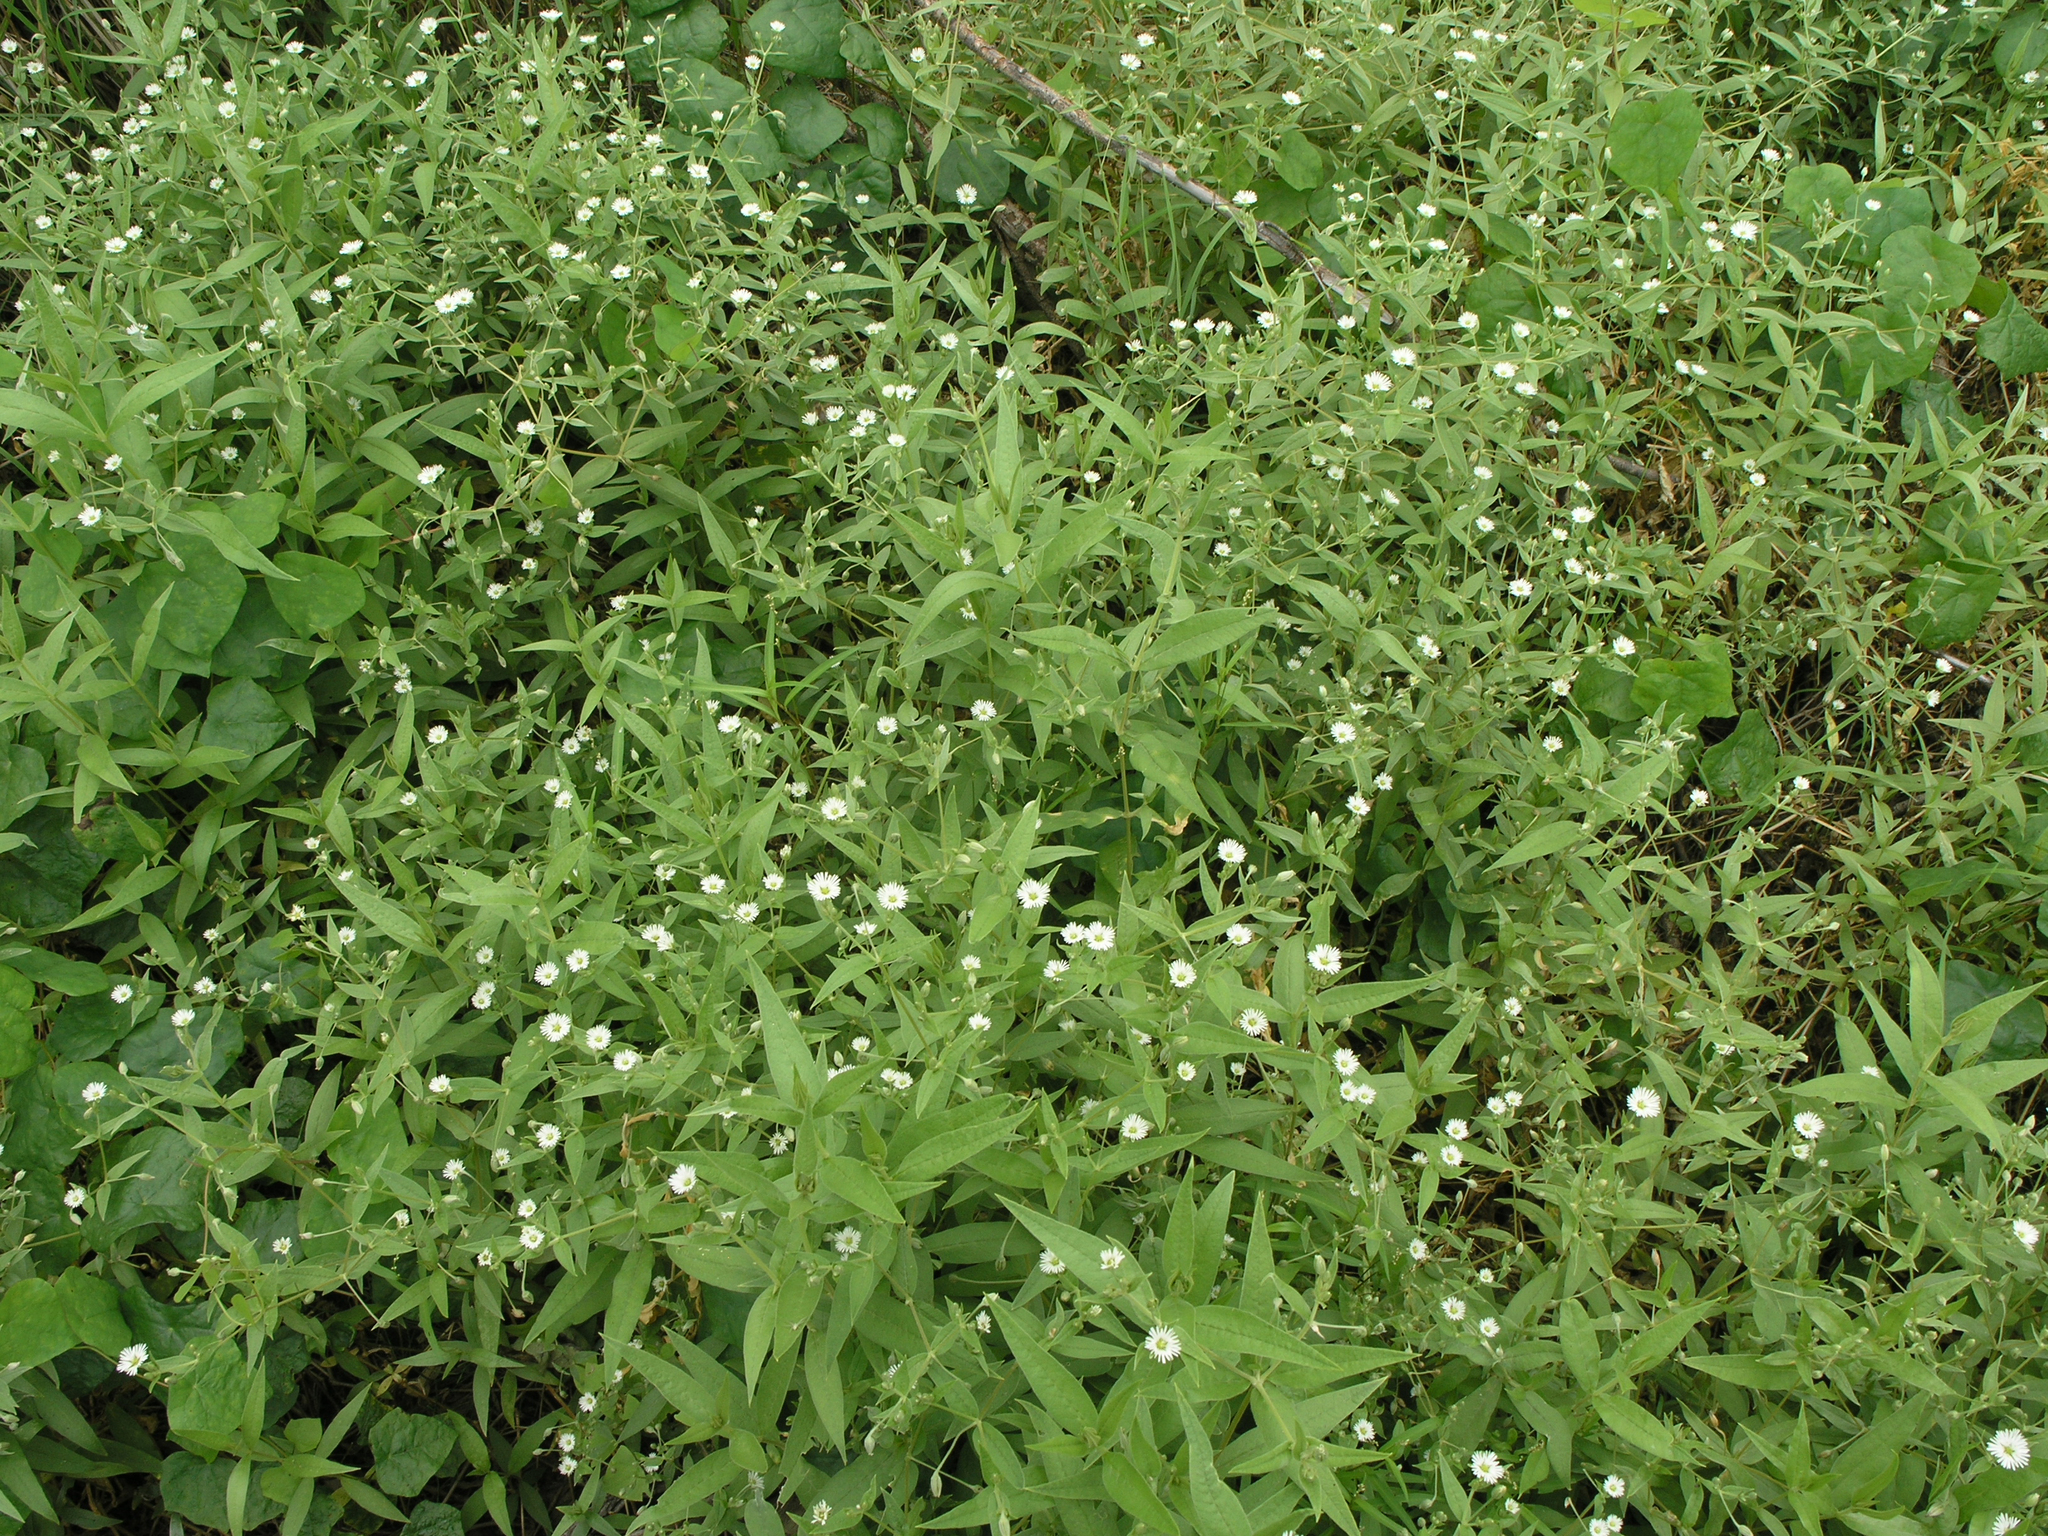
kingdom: Plantae
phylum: Tracheophyta
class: Magnoliopsida
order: Caryophyllales
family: Caryophyllaceae
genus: Stellaria
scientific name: Stellaria radians
